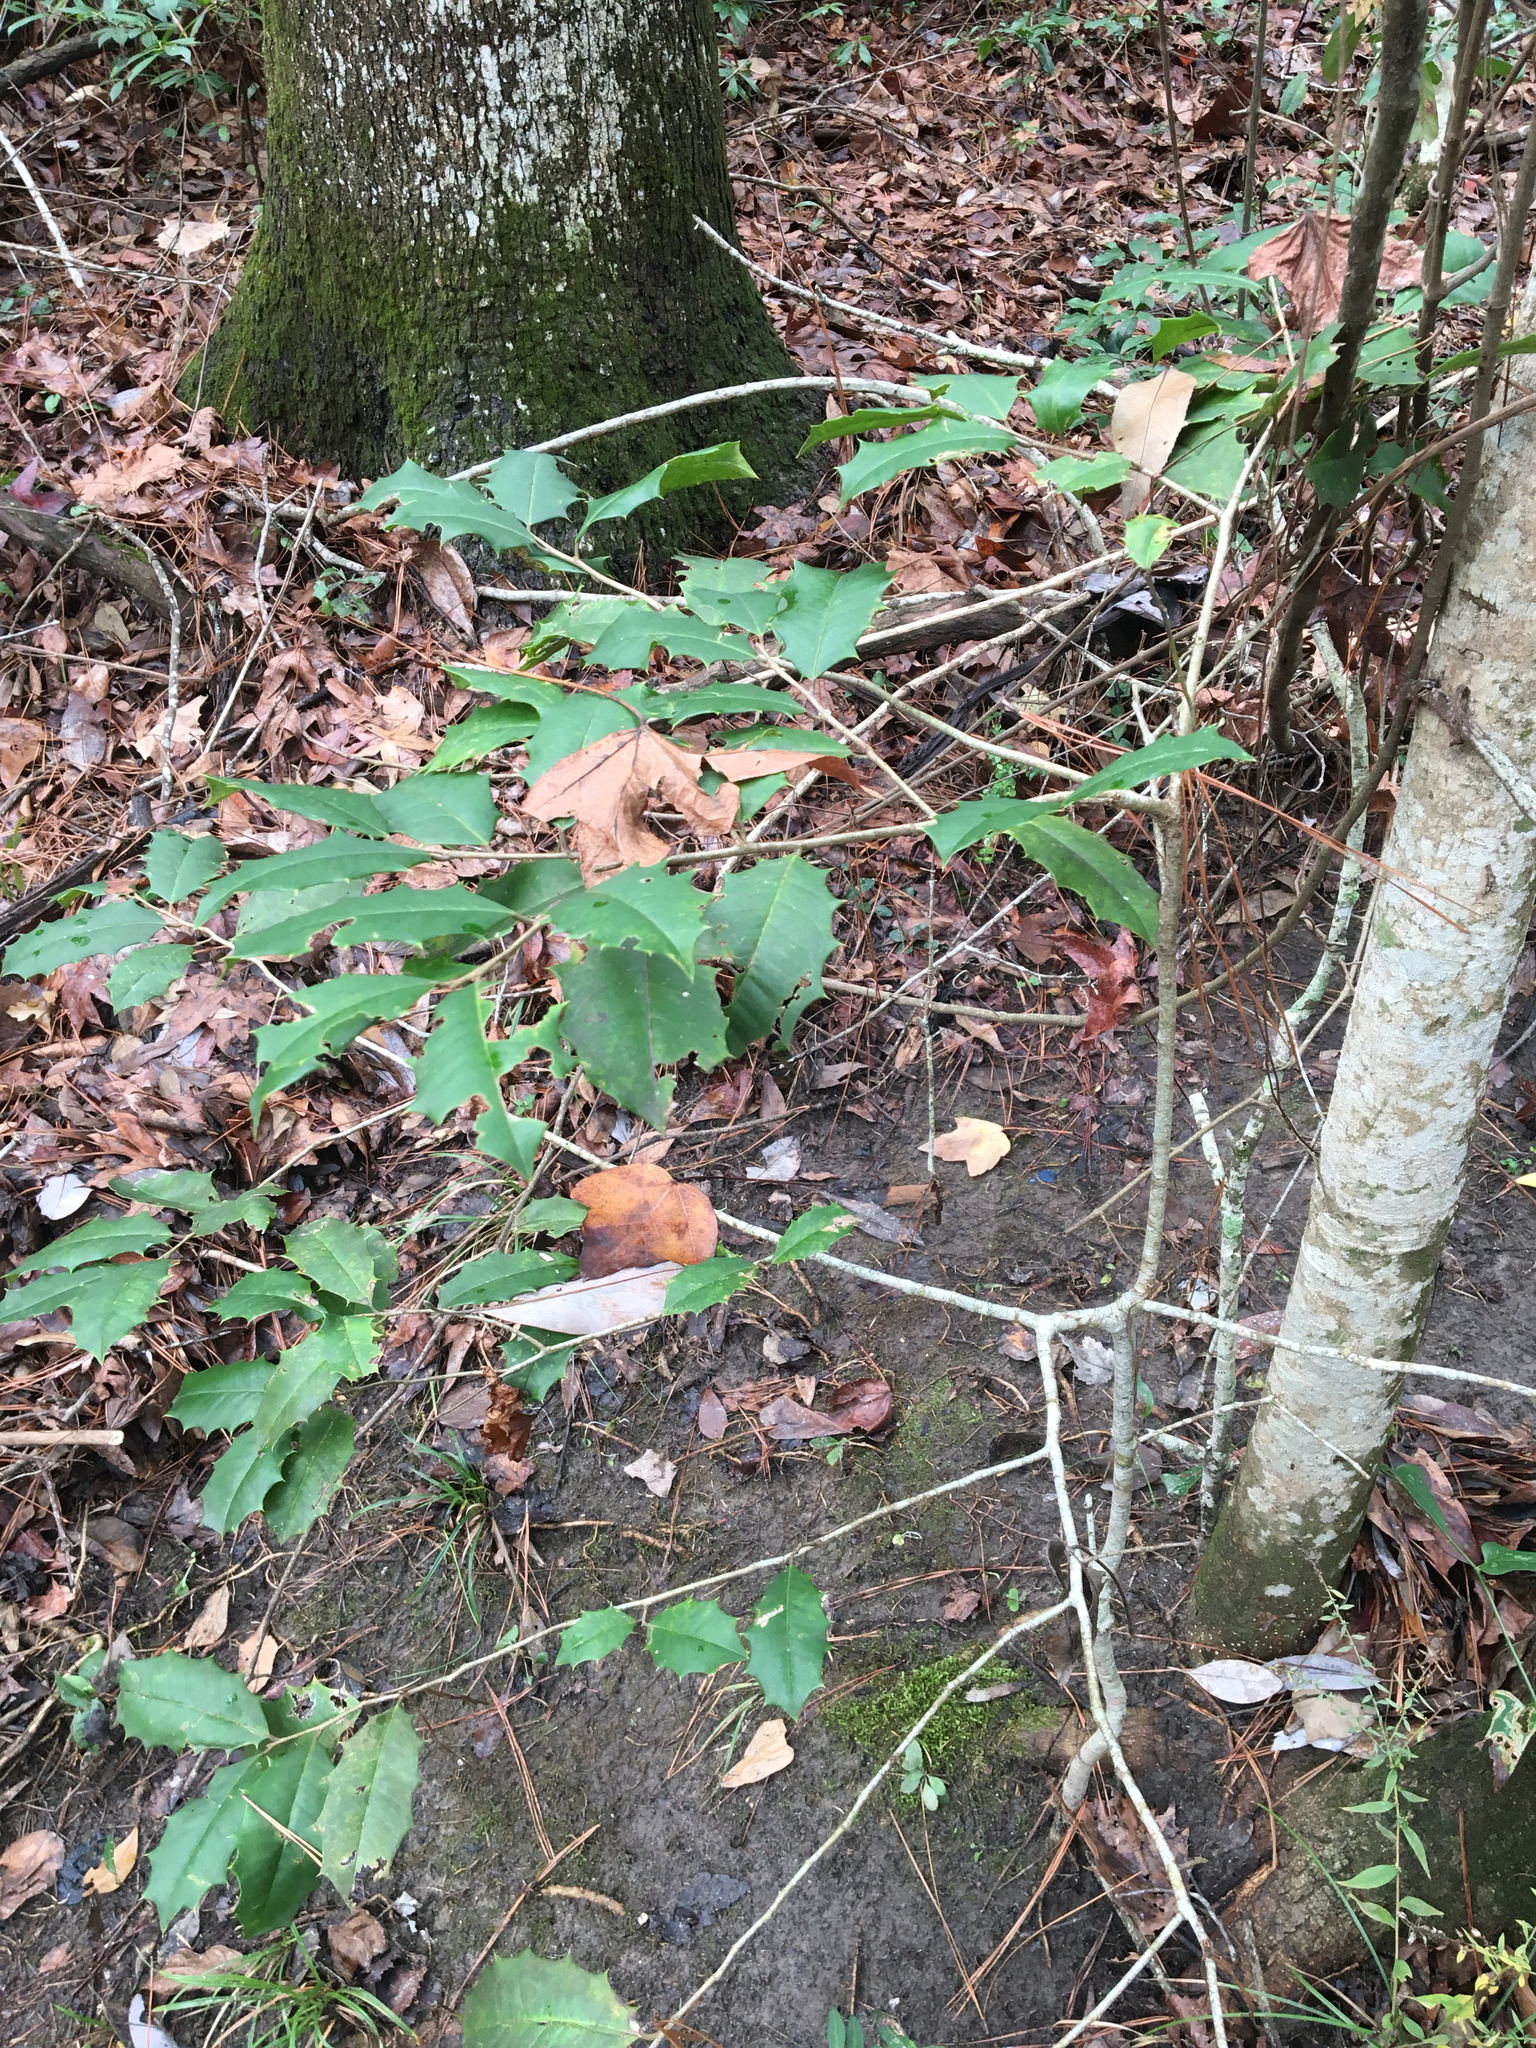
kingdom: Plantae
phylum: Tracheophyta
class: Magnoliopsida
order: Aquifoliales
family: Aquifoliaceae
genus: Ilex
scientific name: Ilex opaca
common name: American holly
